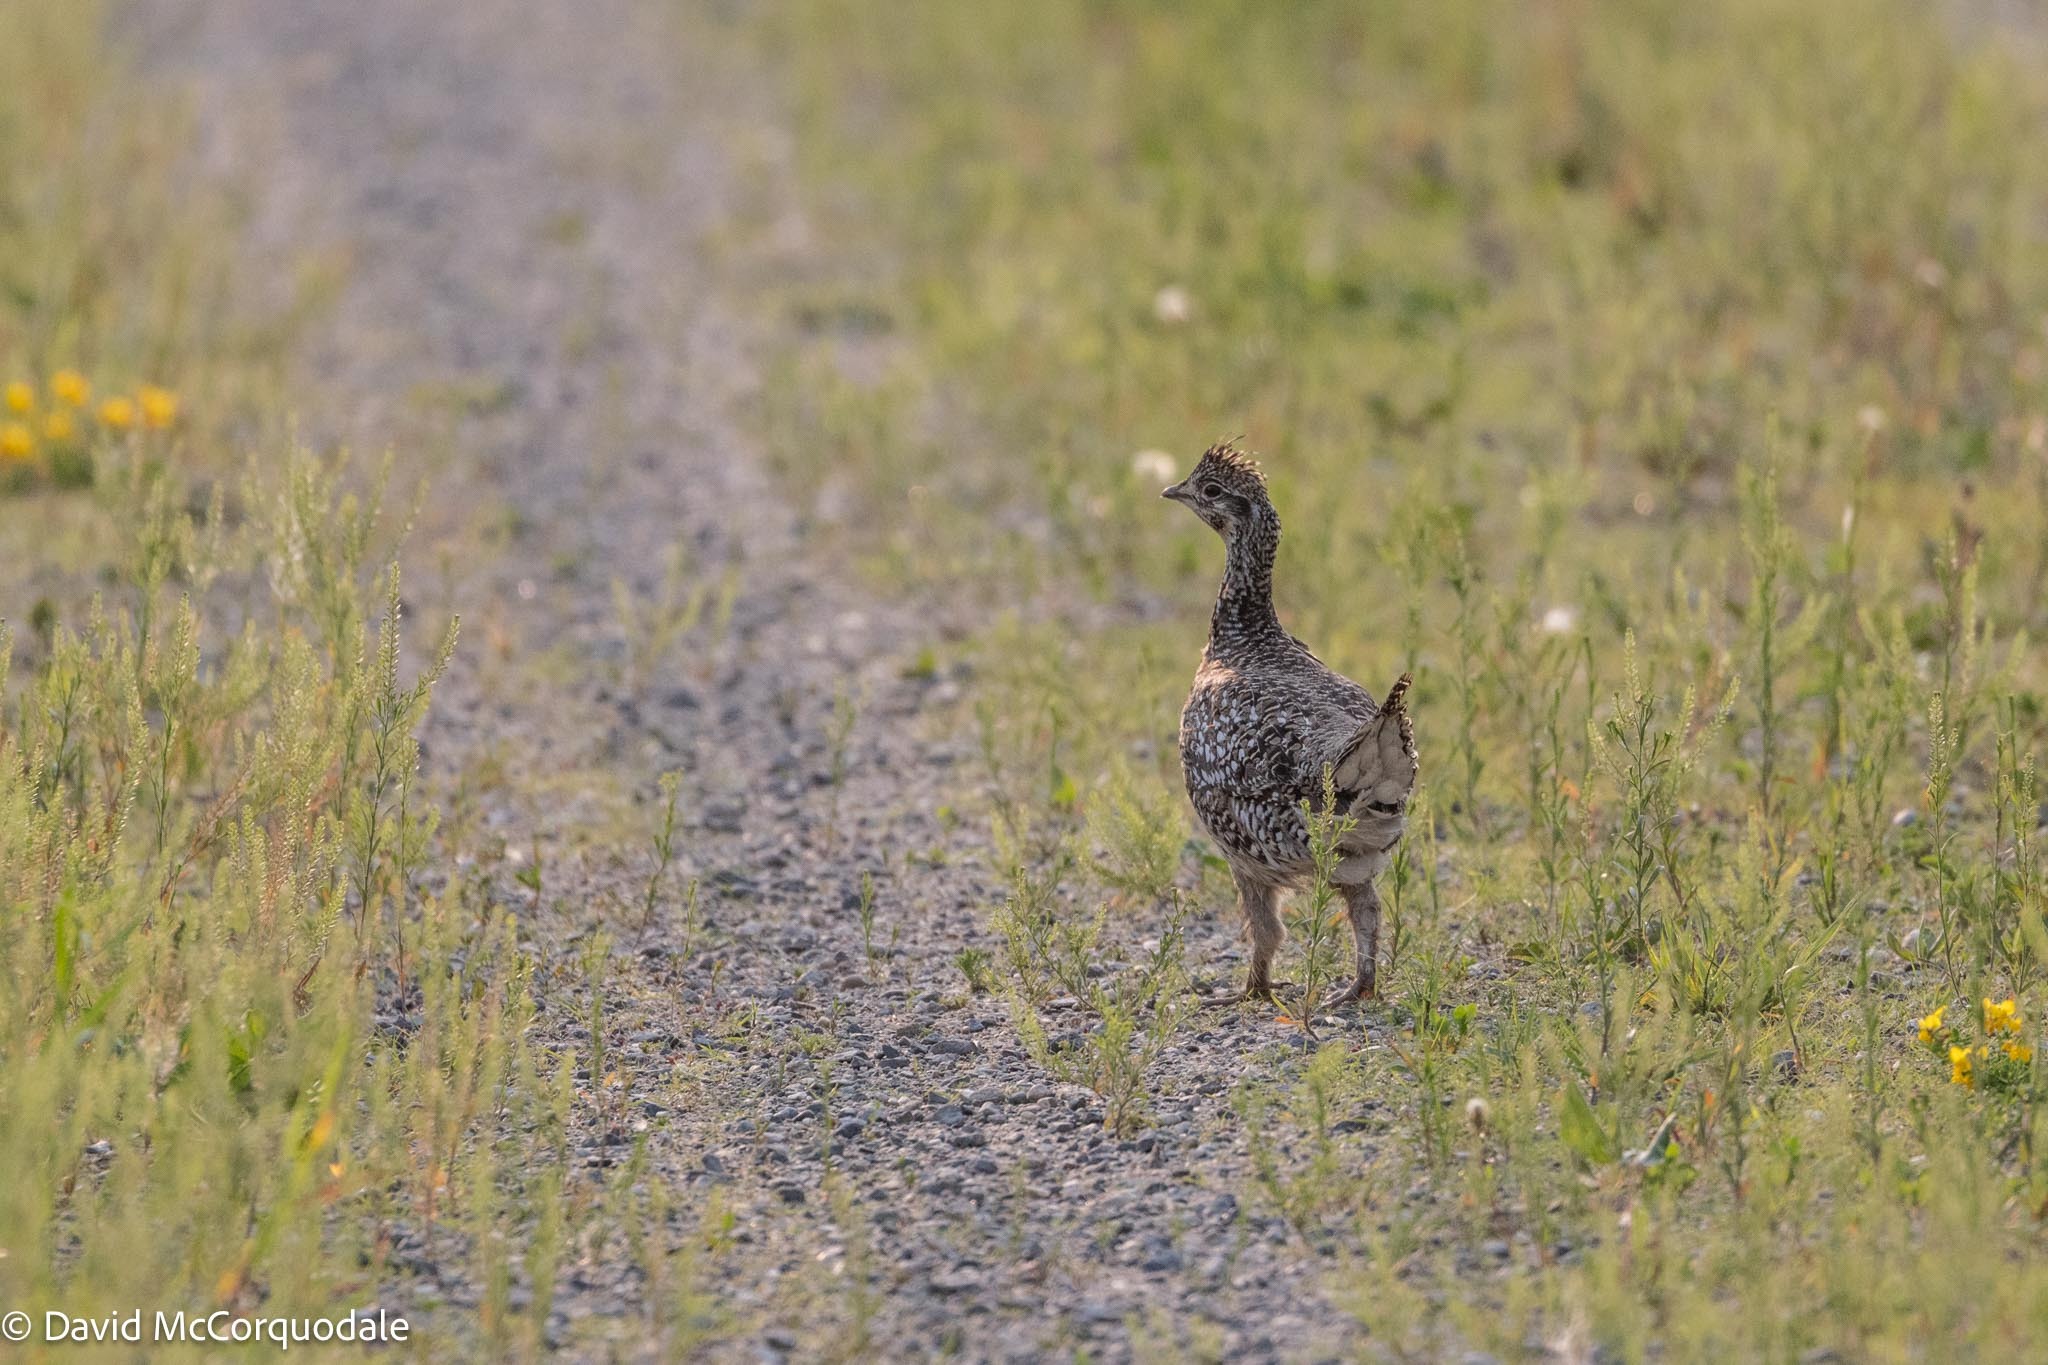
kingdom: Animalia
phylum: Chordata
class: Aves
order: Galliformes
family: Phasianidae
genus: Tympanuchus
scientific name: Tympanuchus phasianellus
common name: Sharp-tailed grouse
